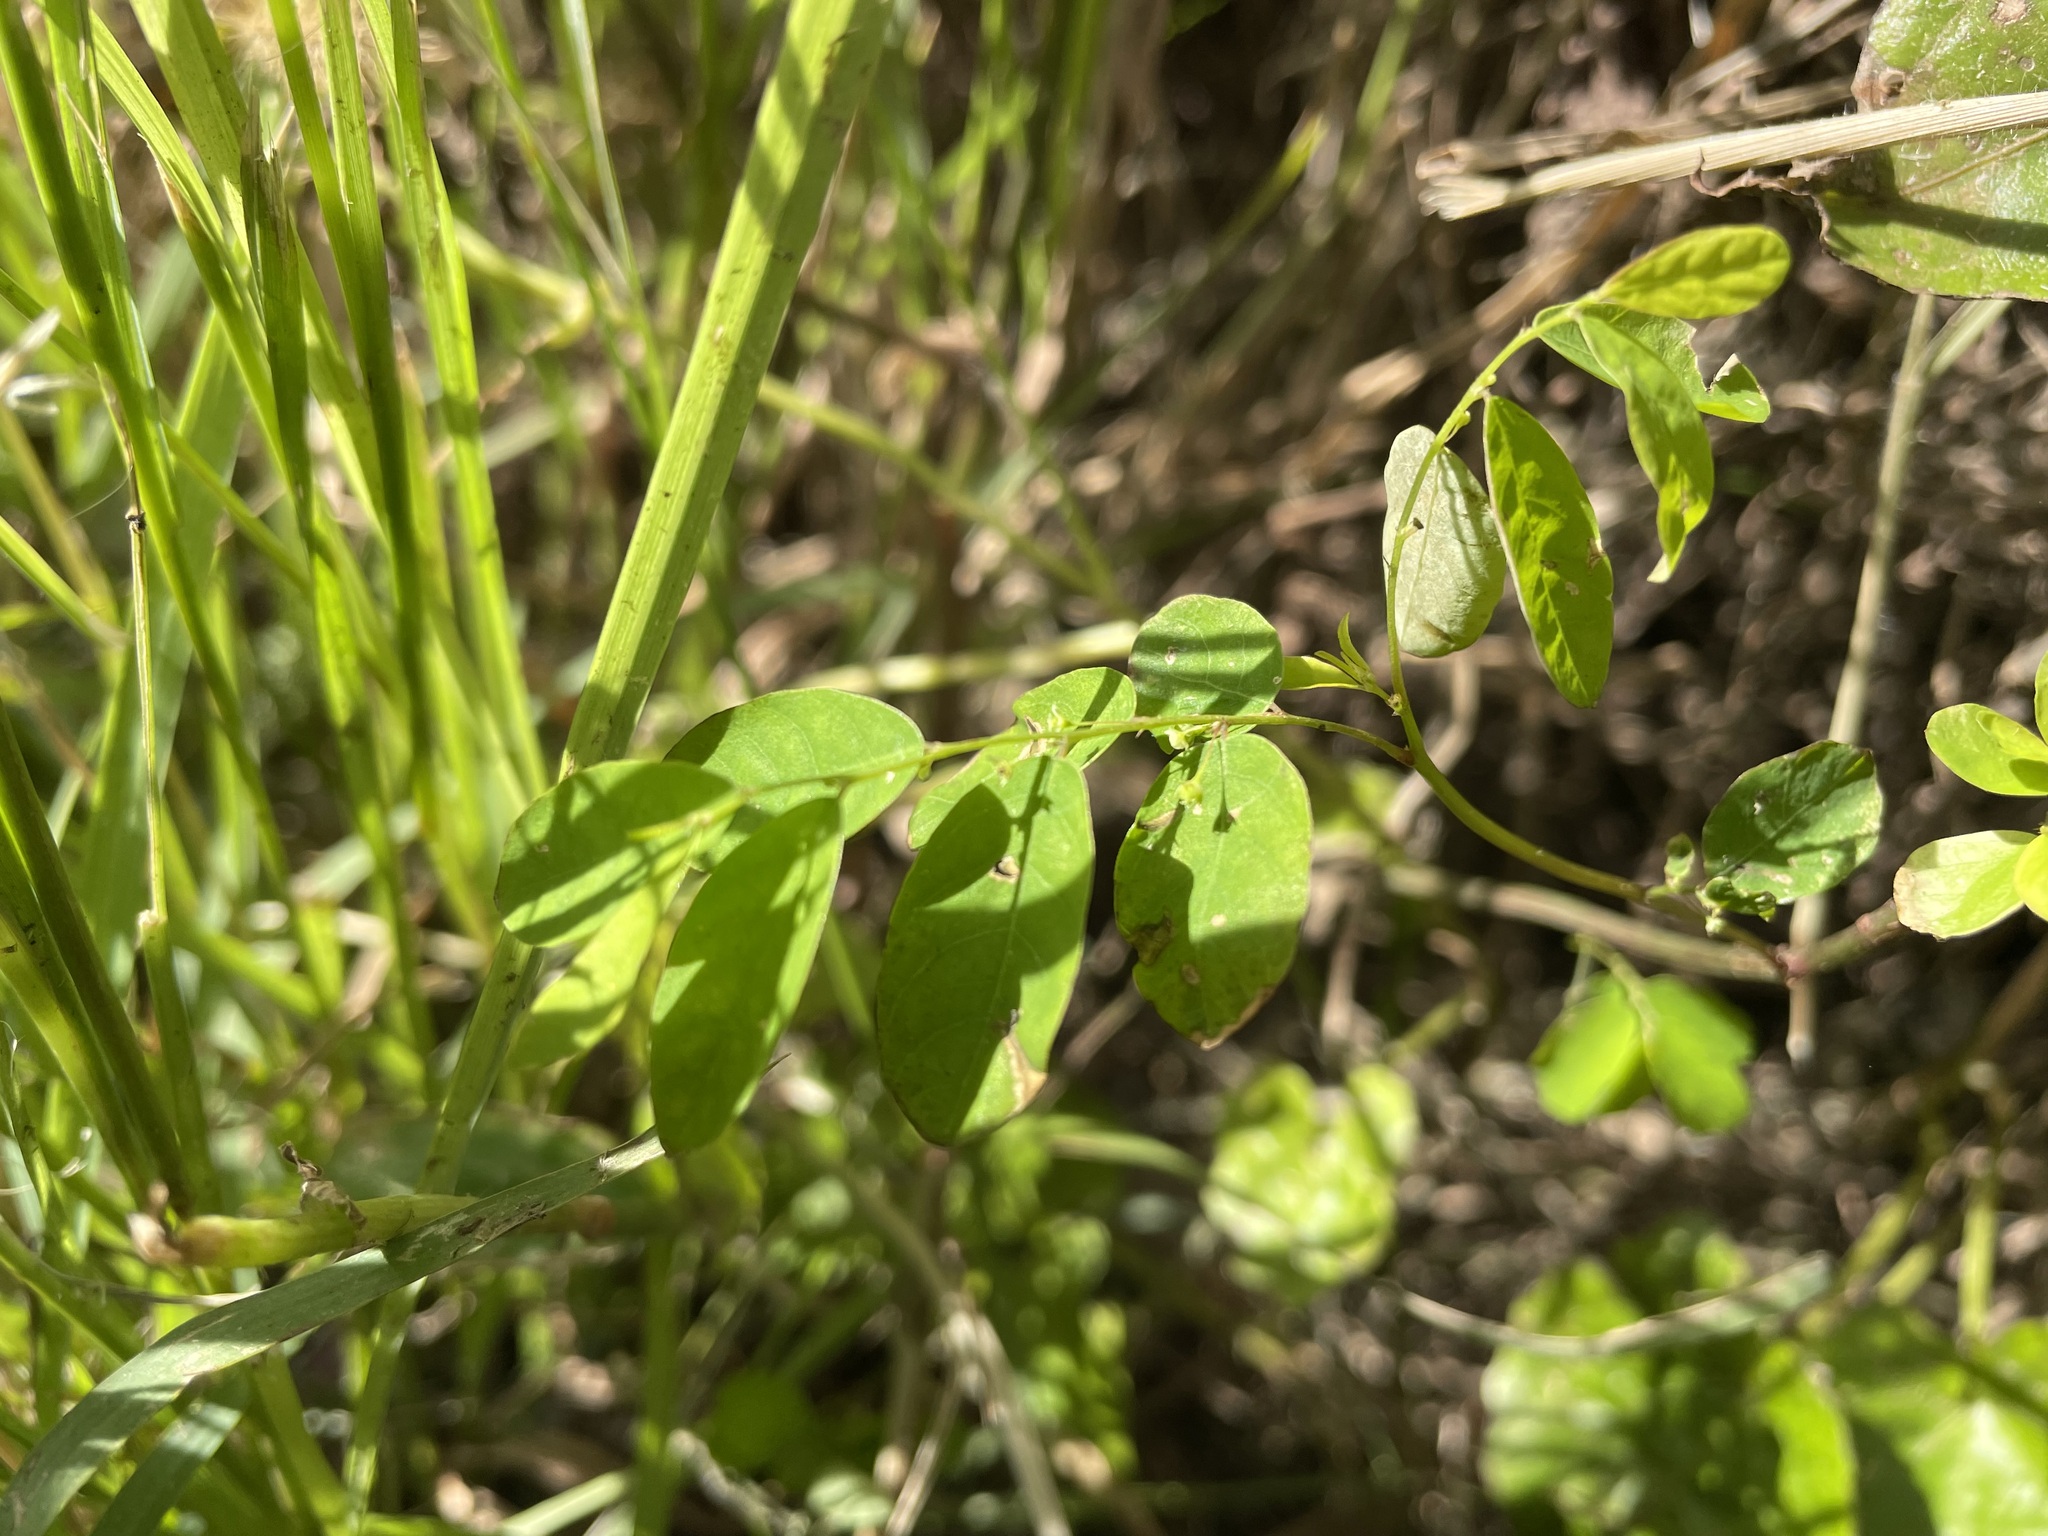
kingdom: Plantae
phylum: Tracheophyta
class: Magnoliopsida
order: Malpighiales
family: Phyllanthaceae
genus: Phyllanthus
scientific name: Phyllanthus tenellus
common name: Mascarene island leaf-flower
